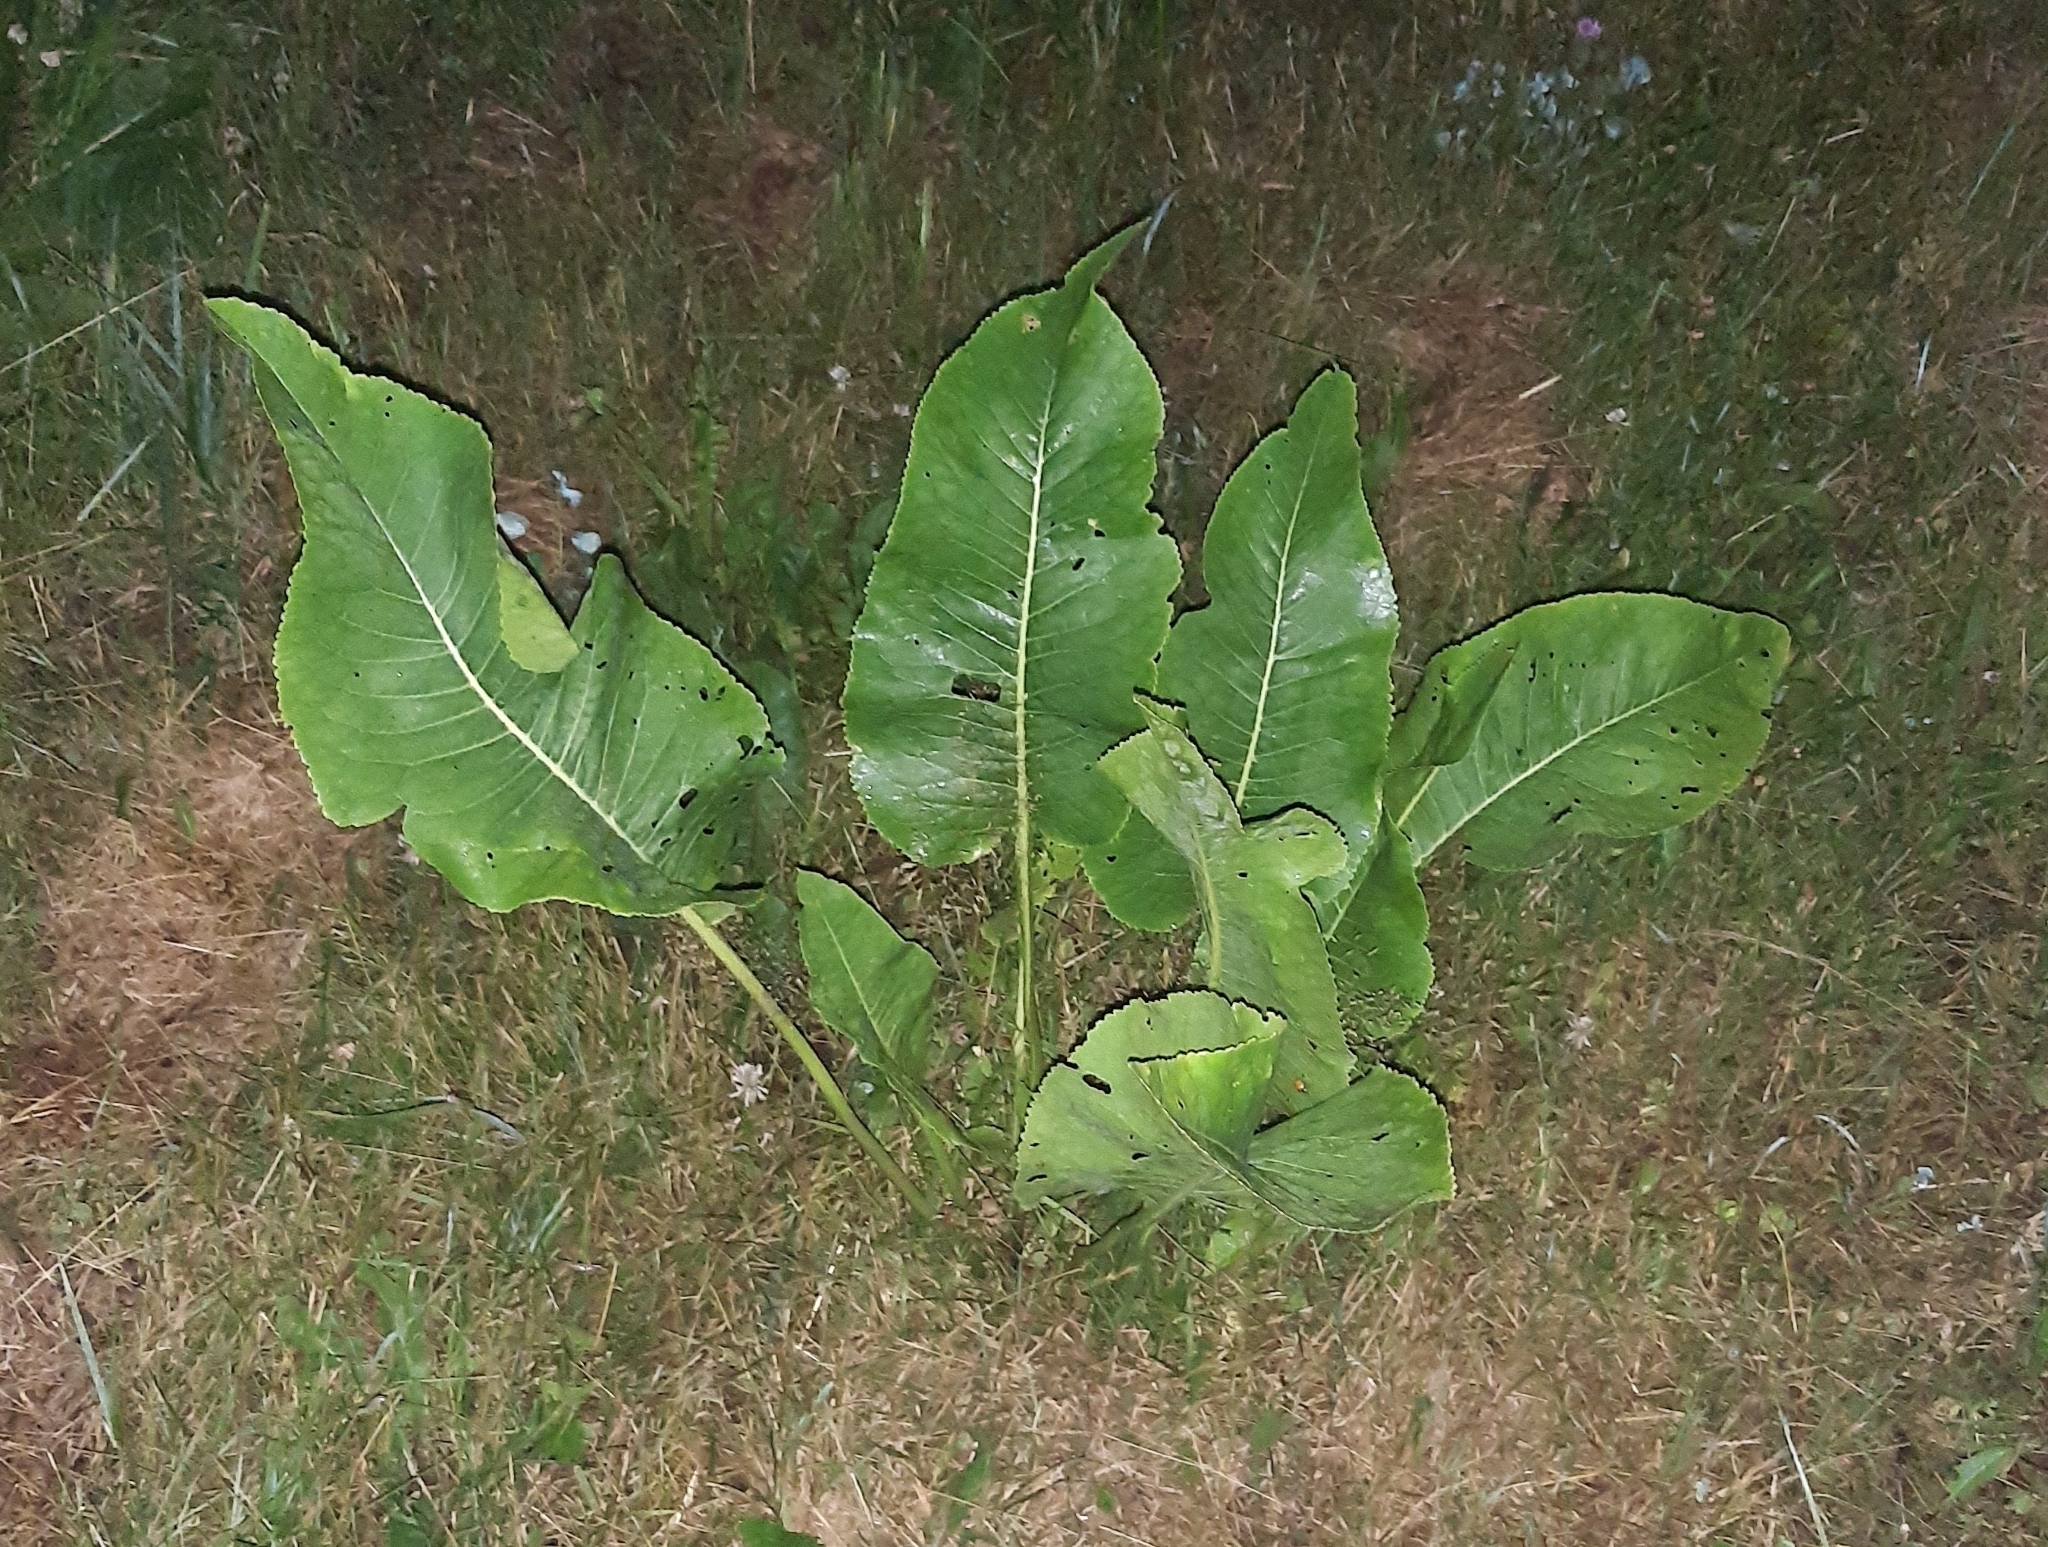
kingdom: Plantae
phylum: Tracheophyta
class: Magnoliopsida
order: Brassicales
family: Brassicaceae
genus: Armoracia
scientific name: Armoracia rusticana
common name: Horseradish
